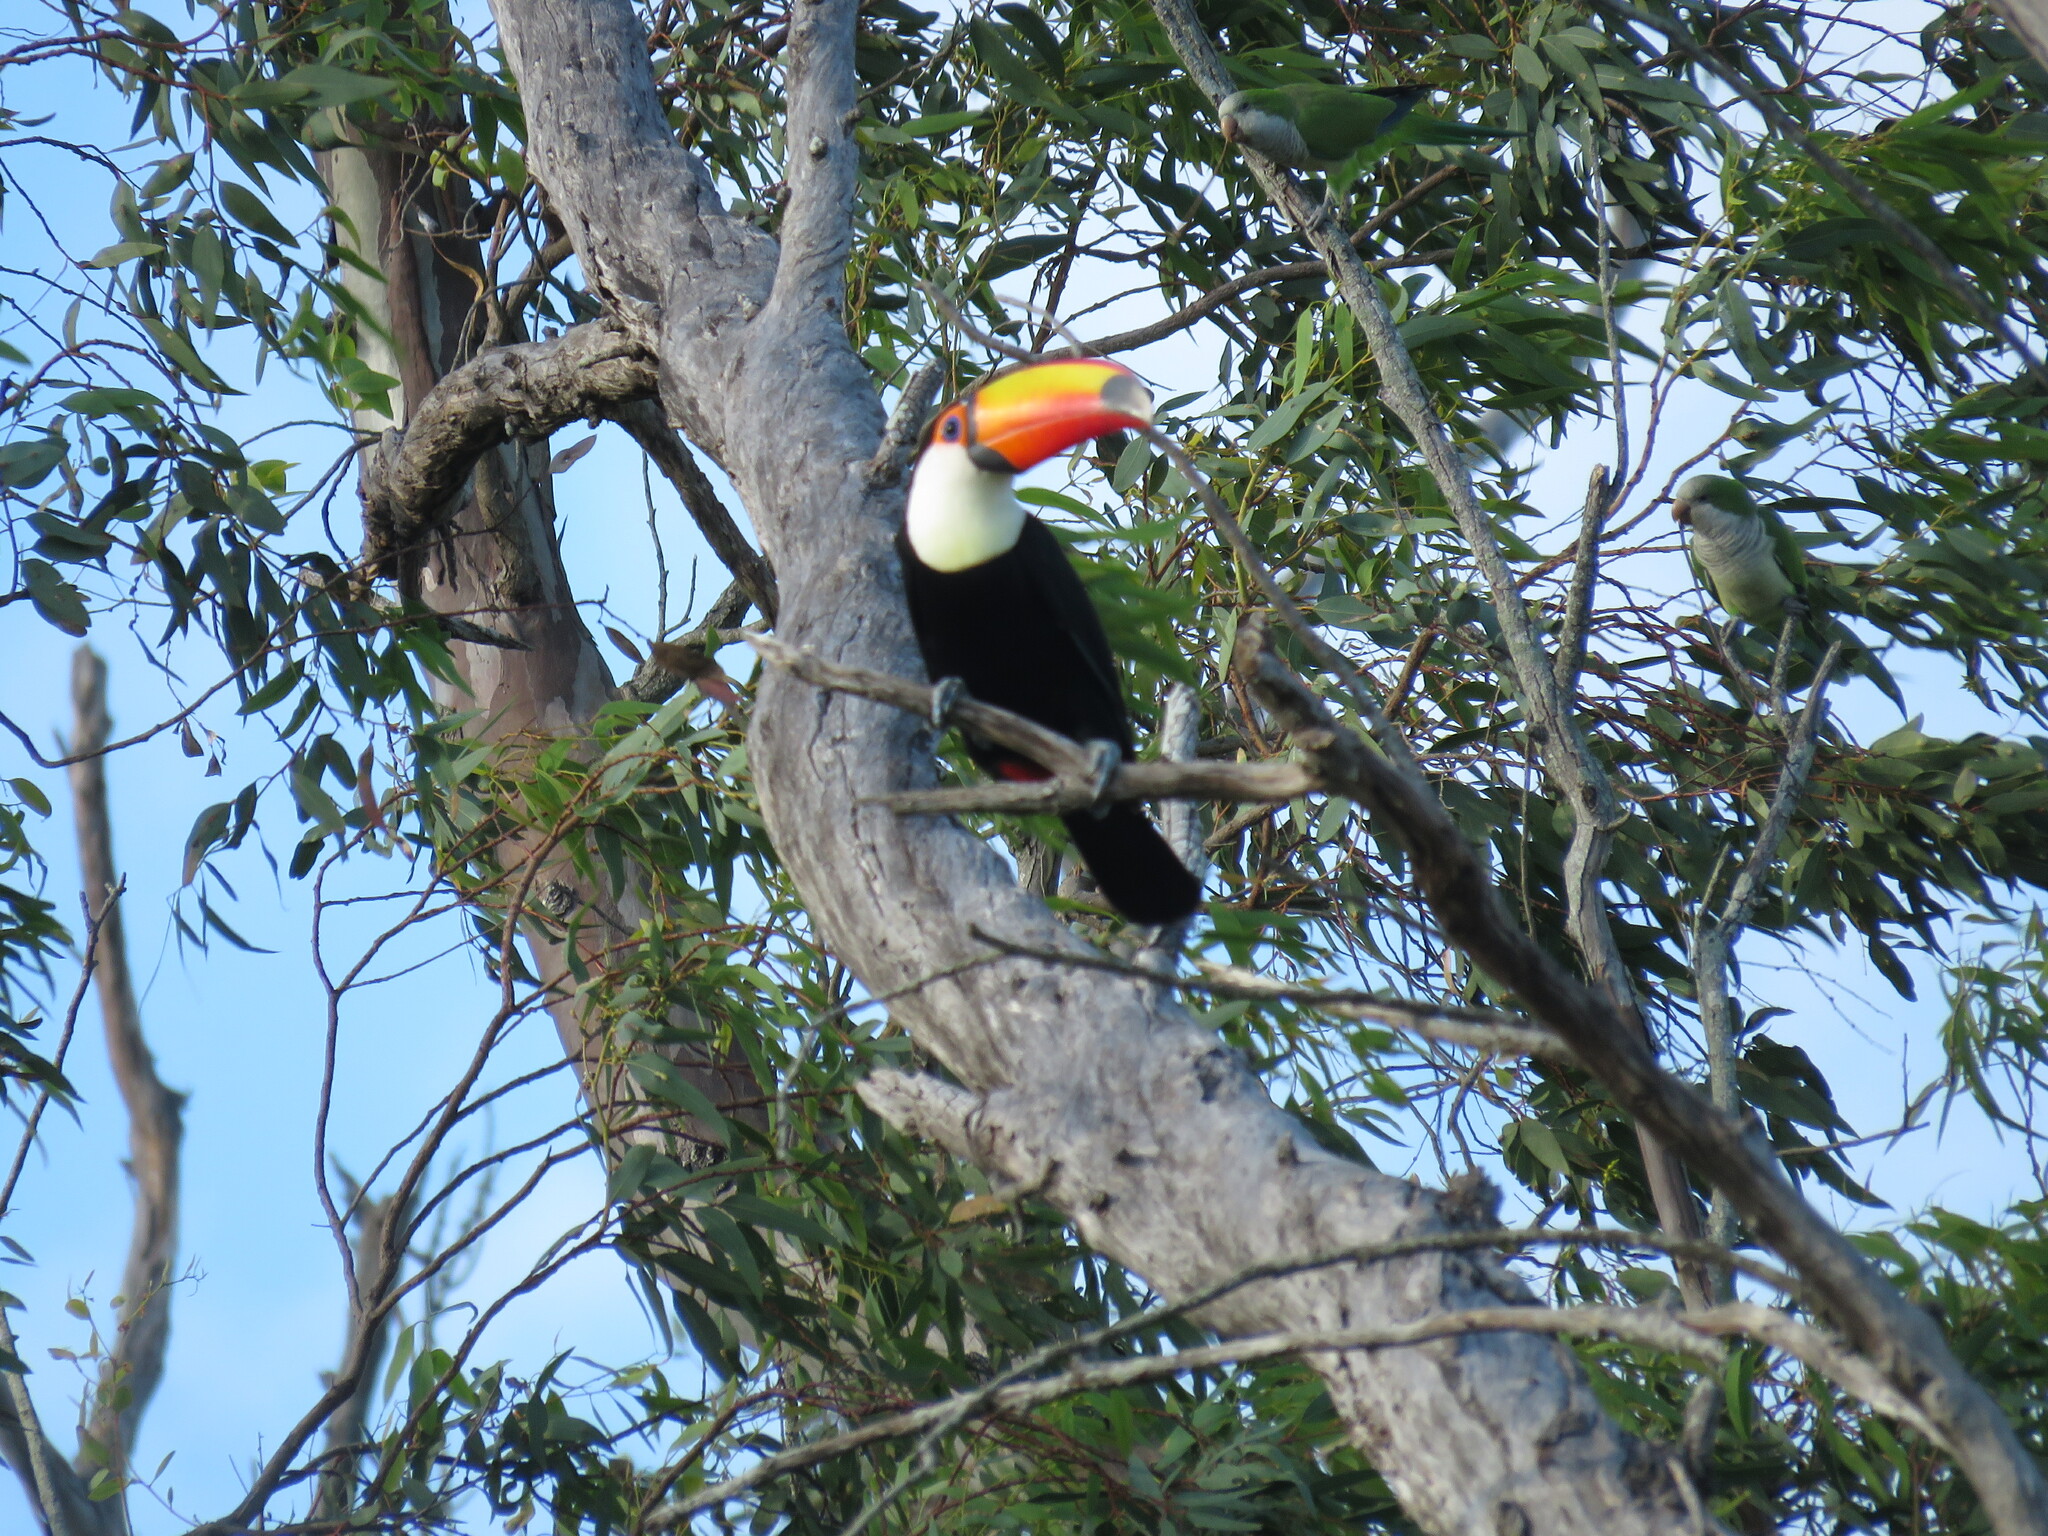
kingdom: Animalia
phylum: Chordata
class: Aves
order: Piciformes
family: Ramphastidae
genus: Ramphastos
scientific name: Ramphastos toco
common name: Toco toucan
